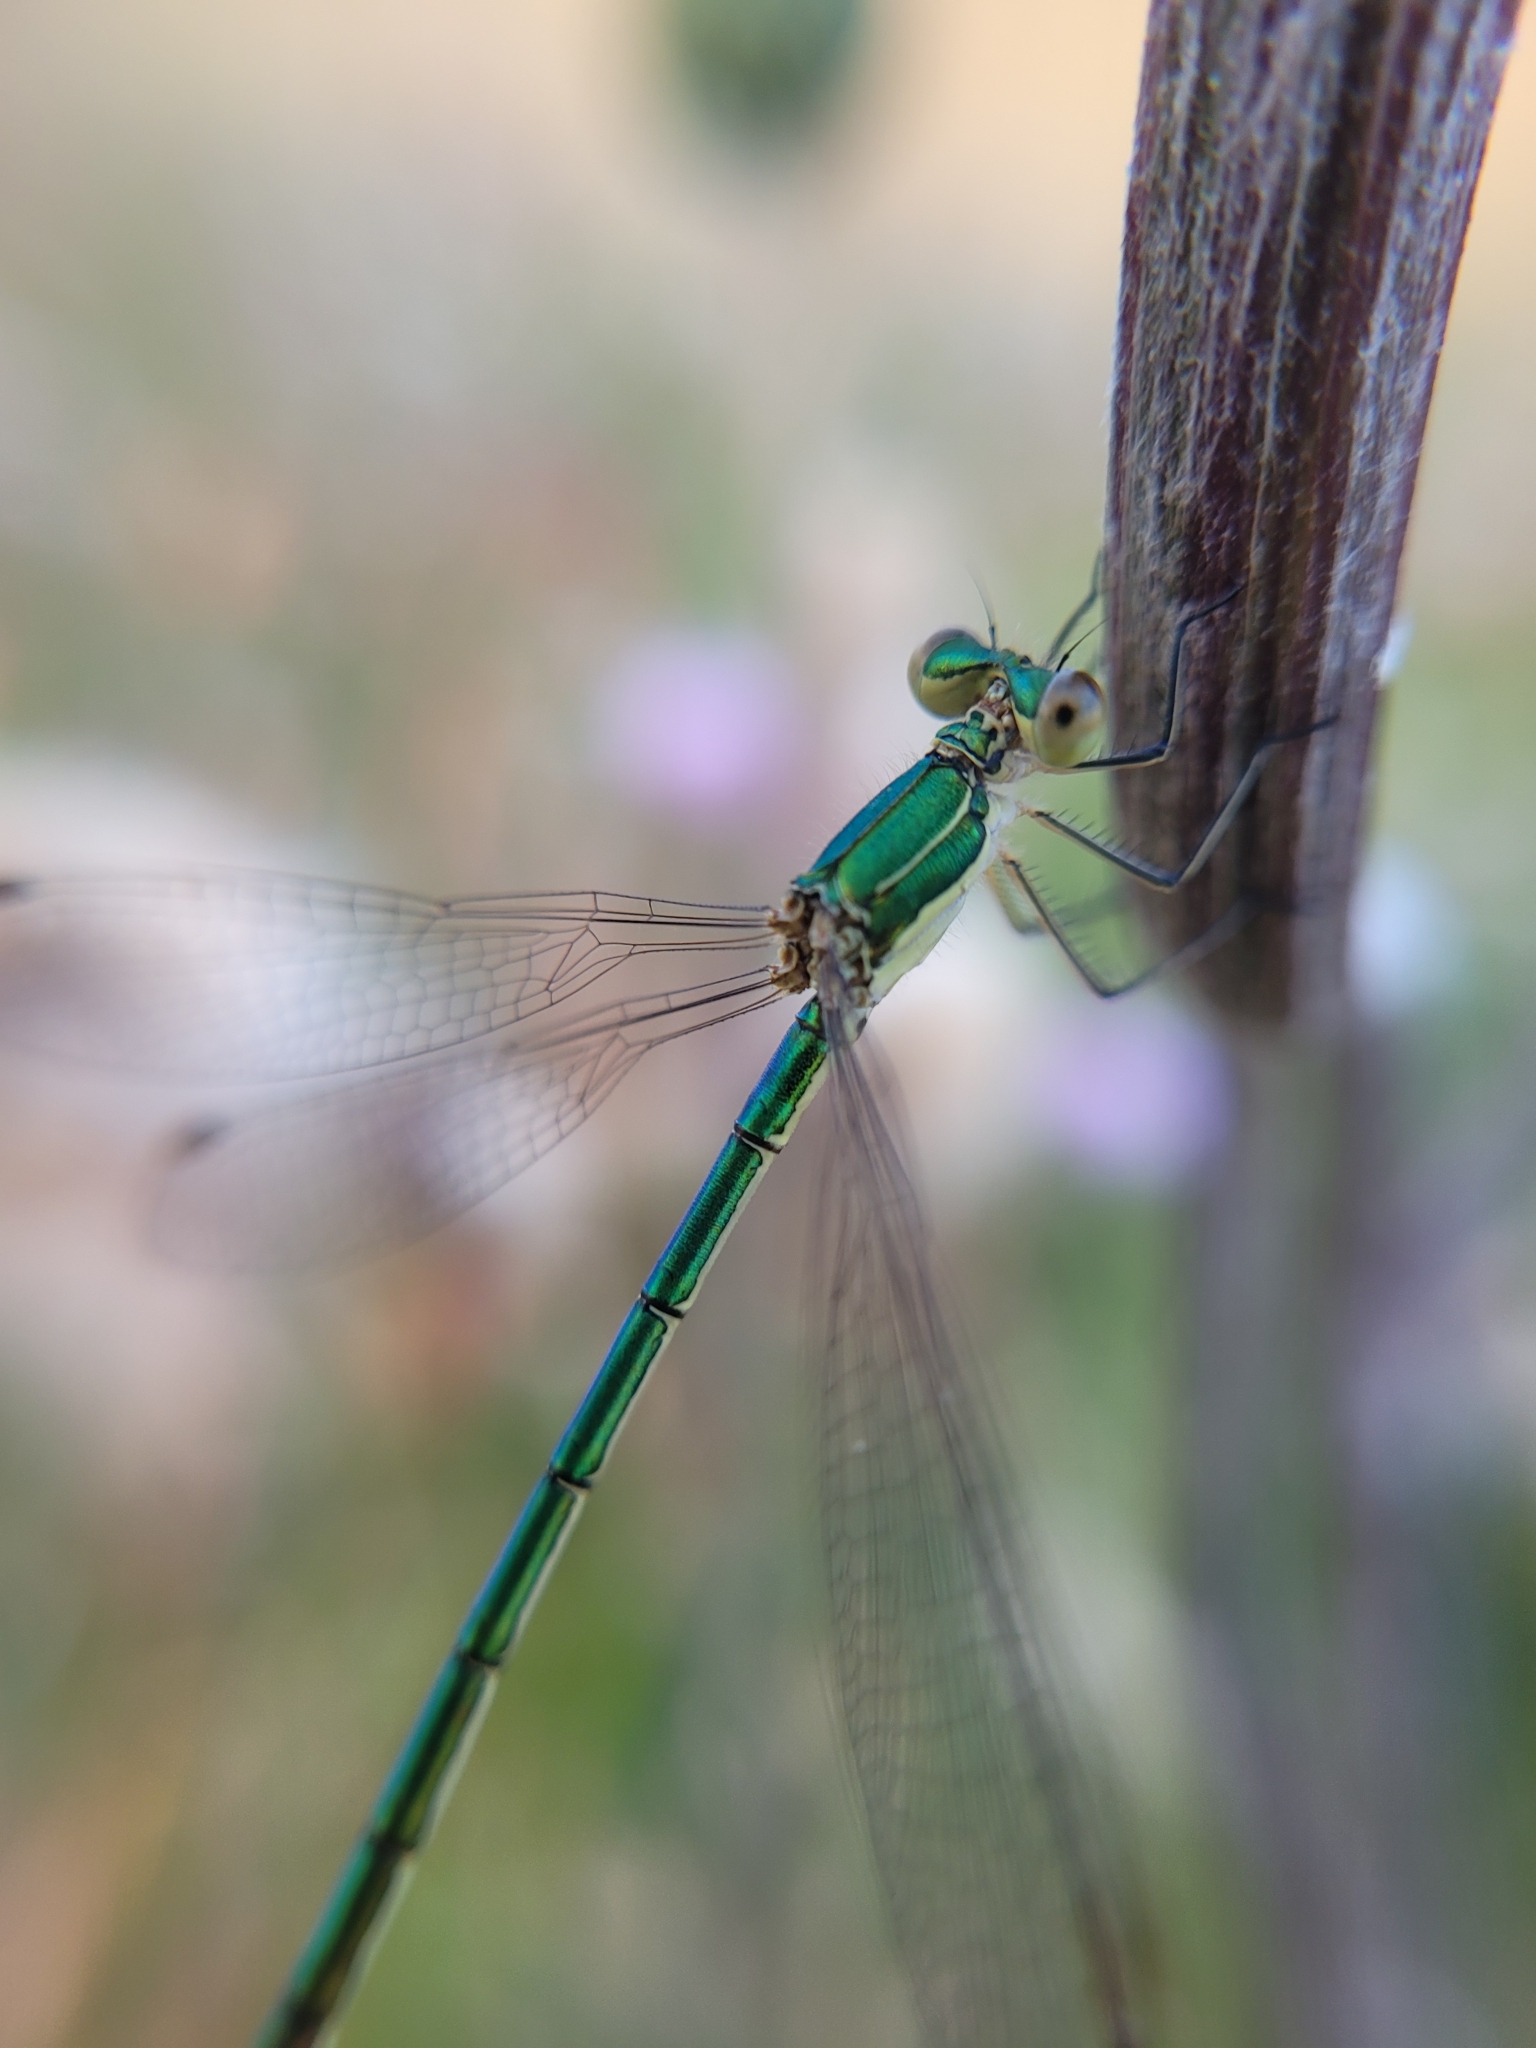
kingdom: Animalia
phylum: Arthropoda
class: Insecta
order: Odonata
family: Lestidae
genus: Lestes
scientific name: Lestes virens
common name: Small emerald spreadwing
